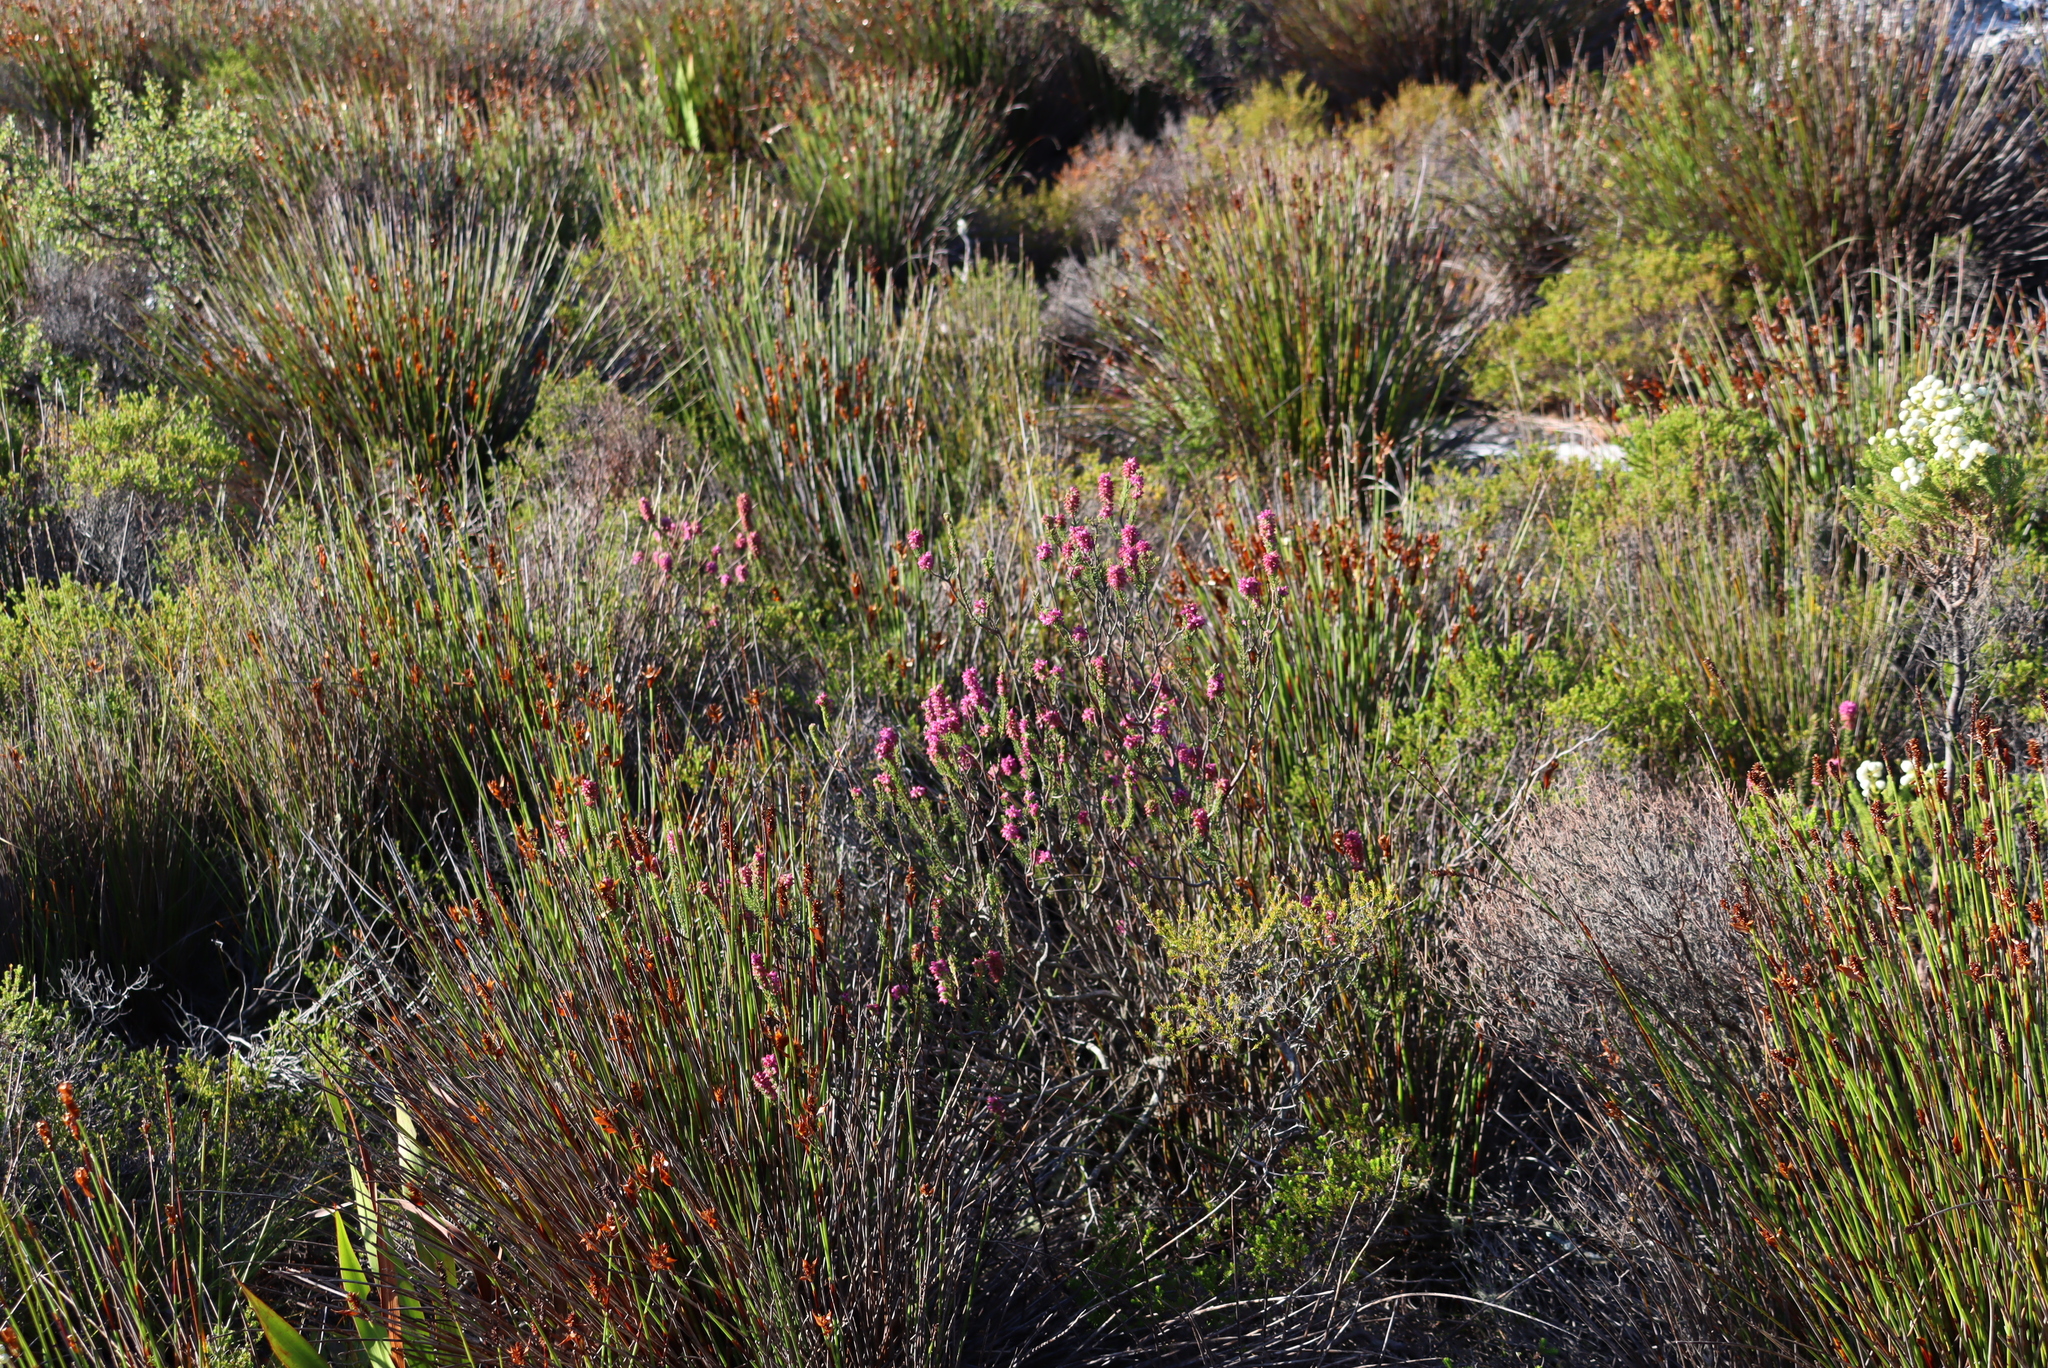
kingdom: Plantae
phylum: Tracheophyta
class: Magnoliopsida
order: Ericales
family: Ericaceae
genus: Erica
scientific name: Erica empetrina
